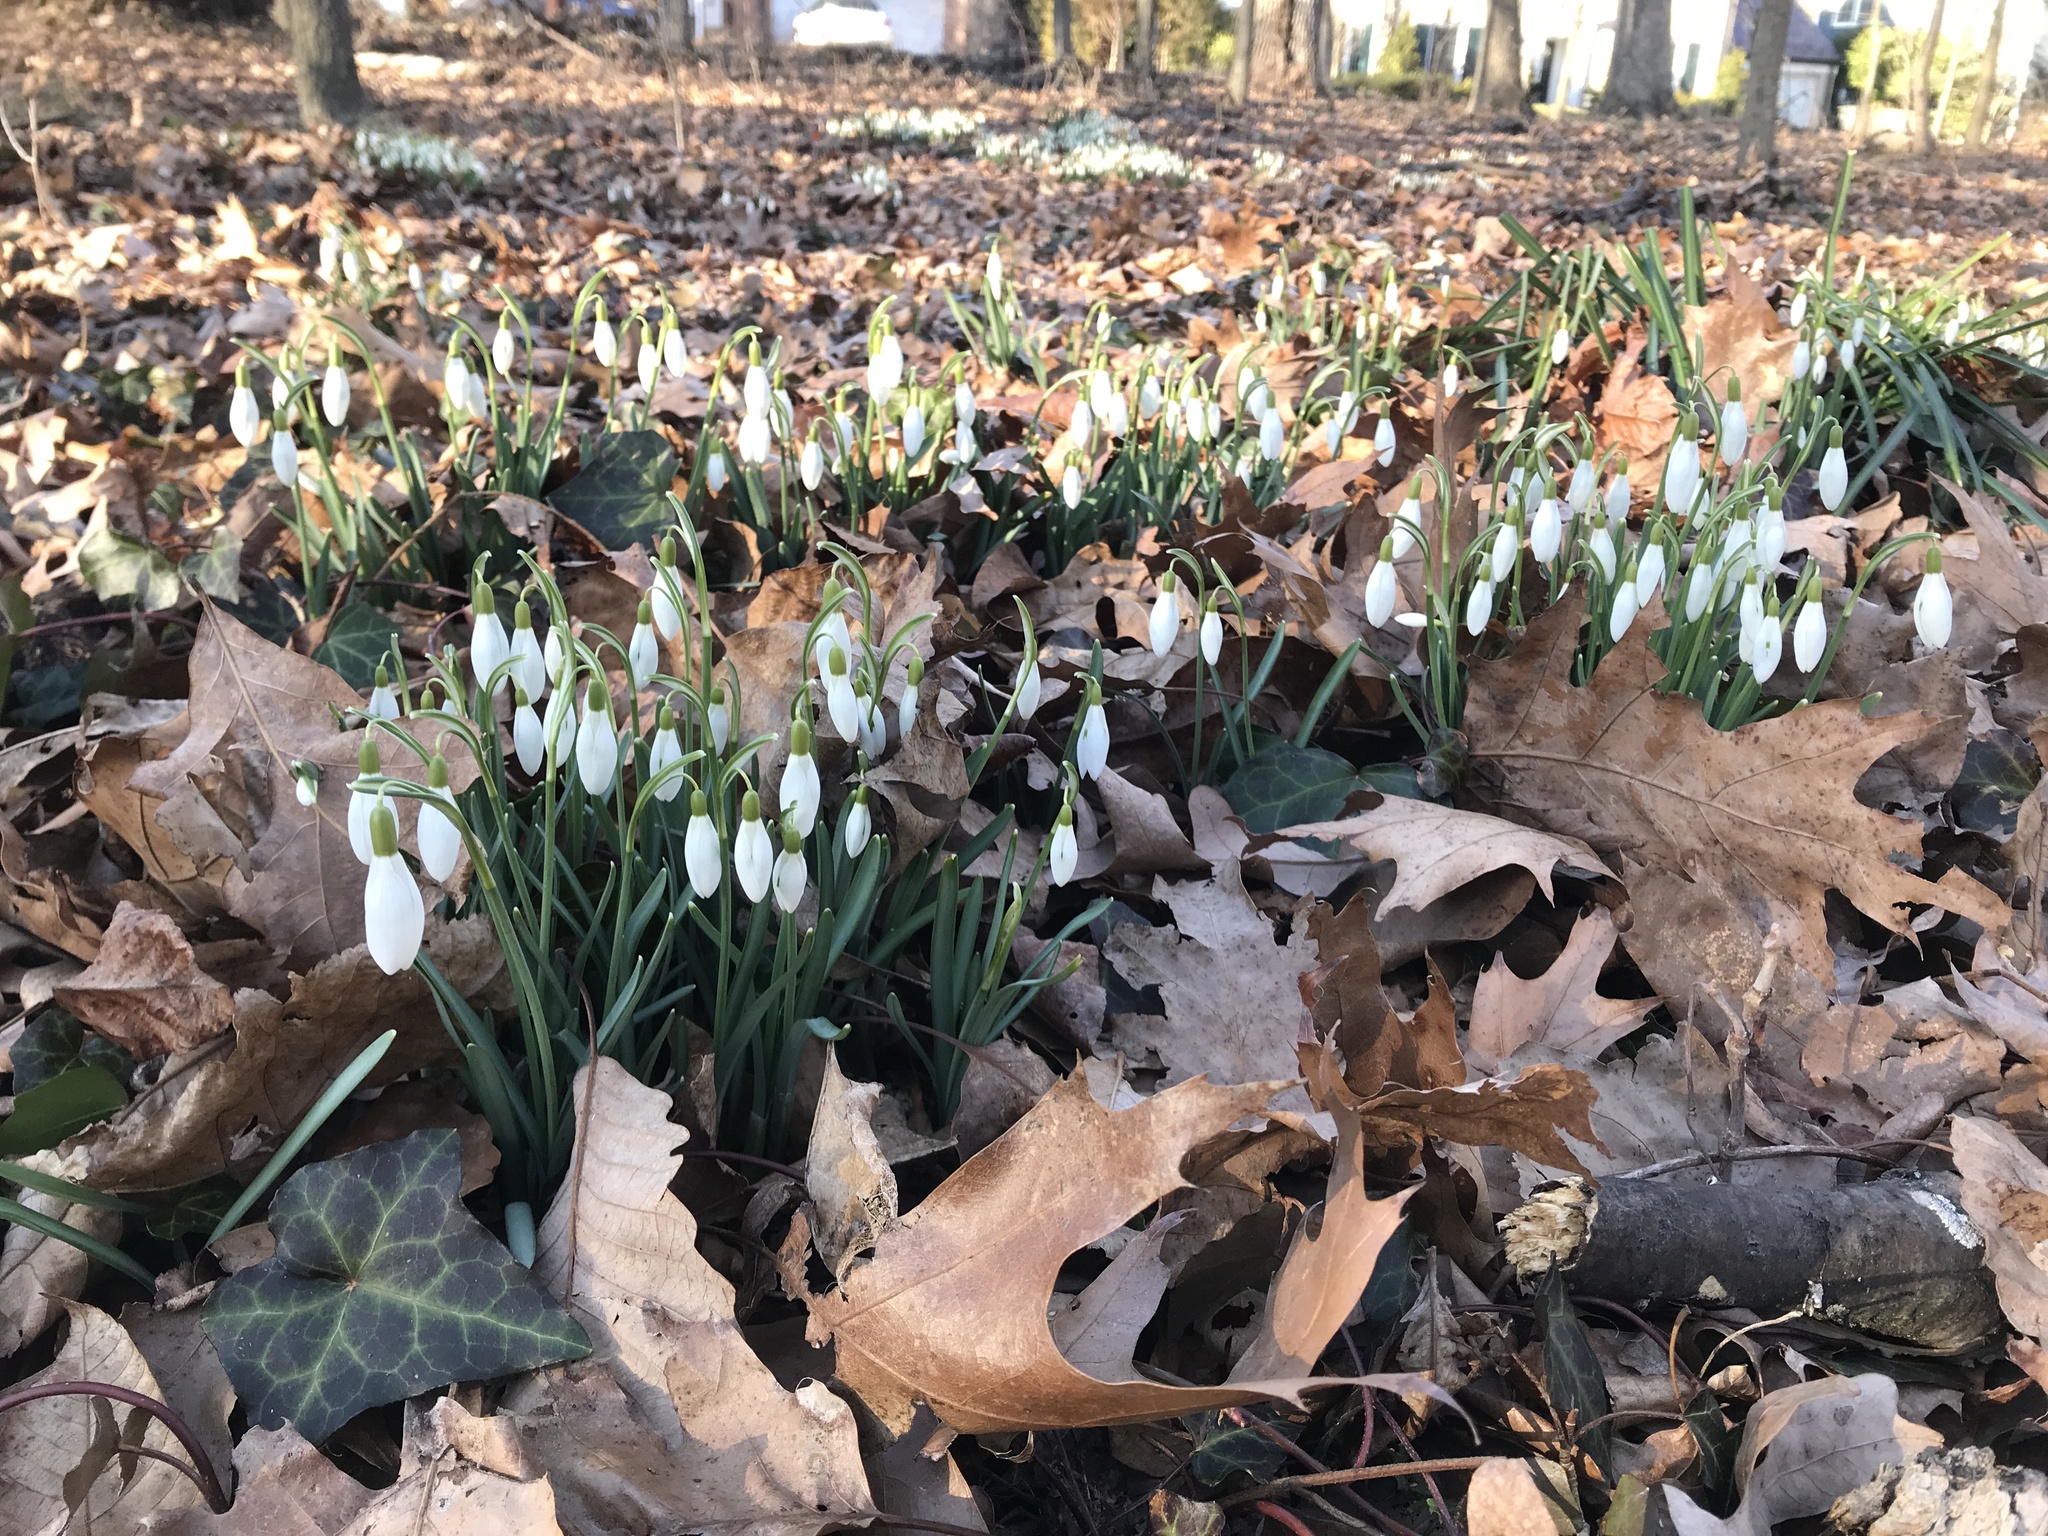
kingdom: Plantae
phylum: Tracheophyta
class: Liliopsida
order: Asparagales
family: Amaryllidaceae
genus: Galanthus
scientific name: Galanthus nivalis
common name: Snowdrop
